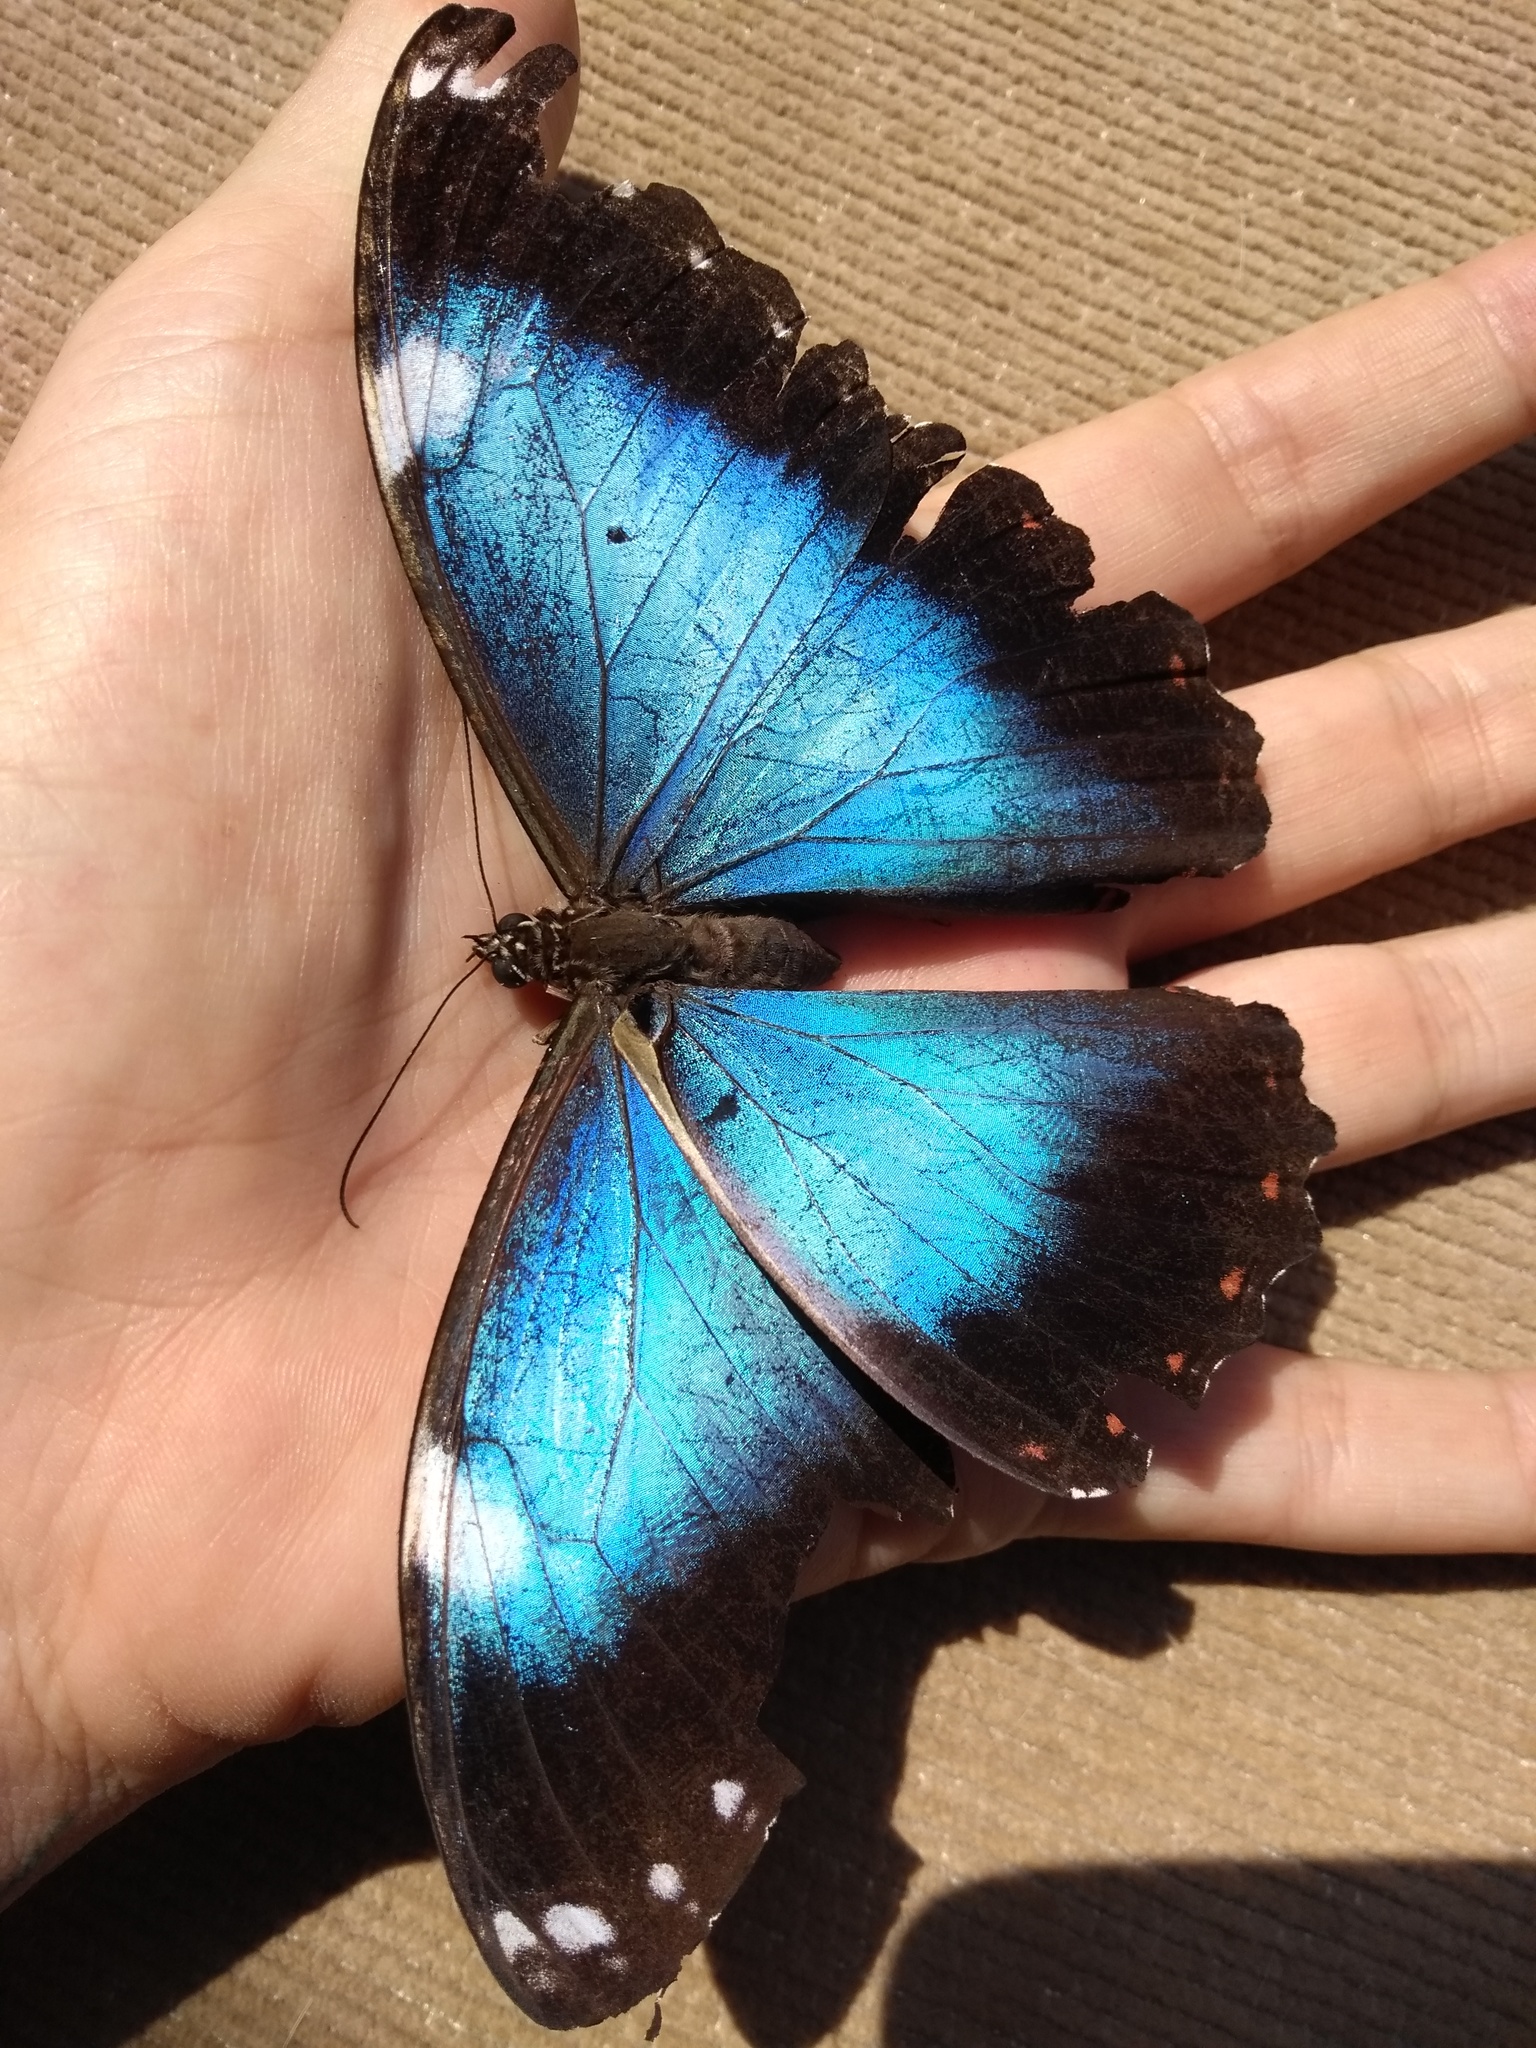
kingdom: Animalia
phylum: Arthropoda
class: Insecta
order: Lepidoptera
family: Nymphalidae
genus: Morpho
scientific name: Morpho helenor
